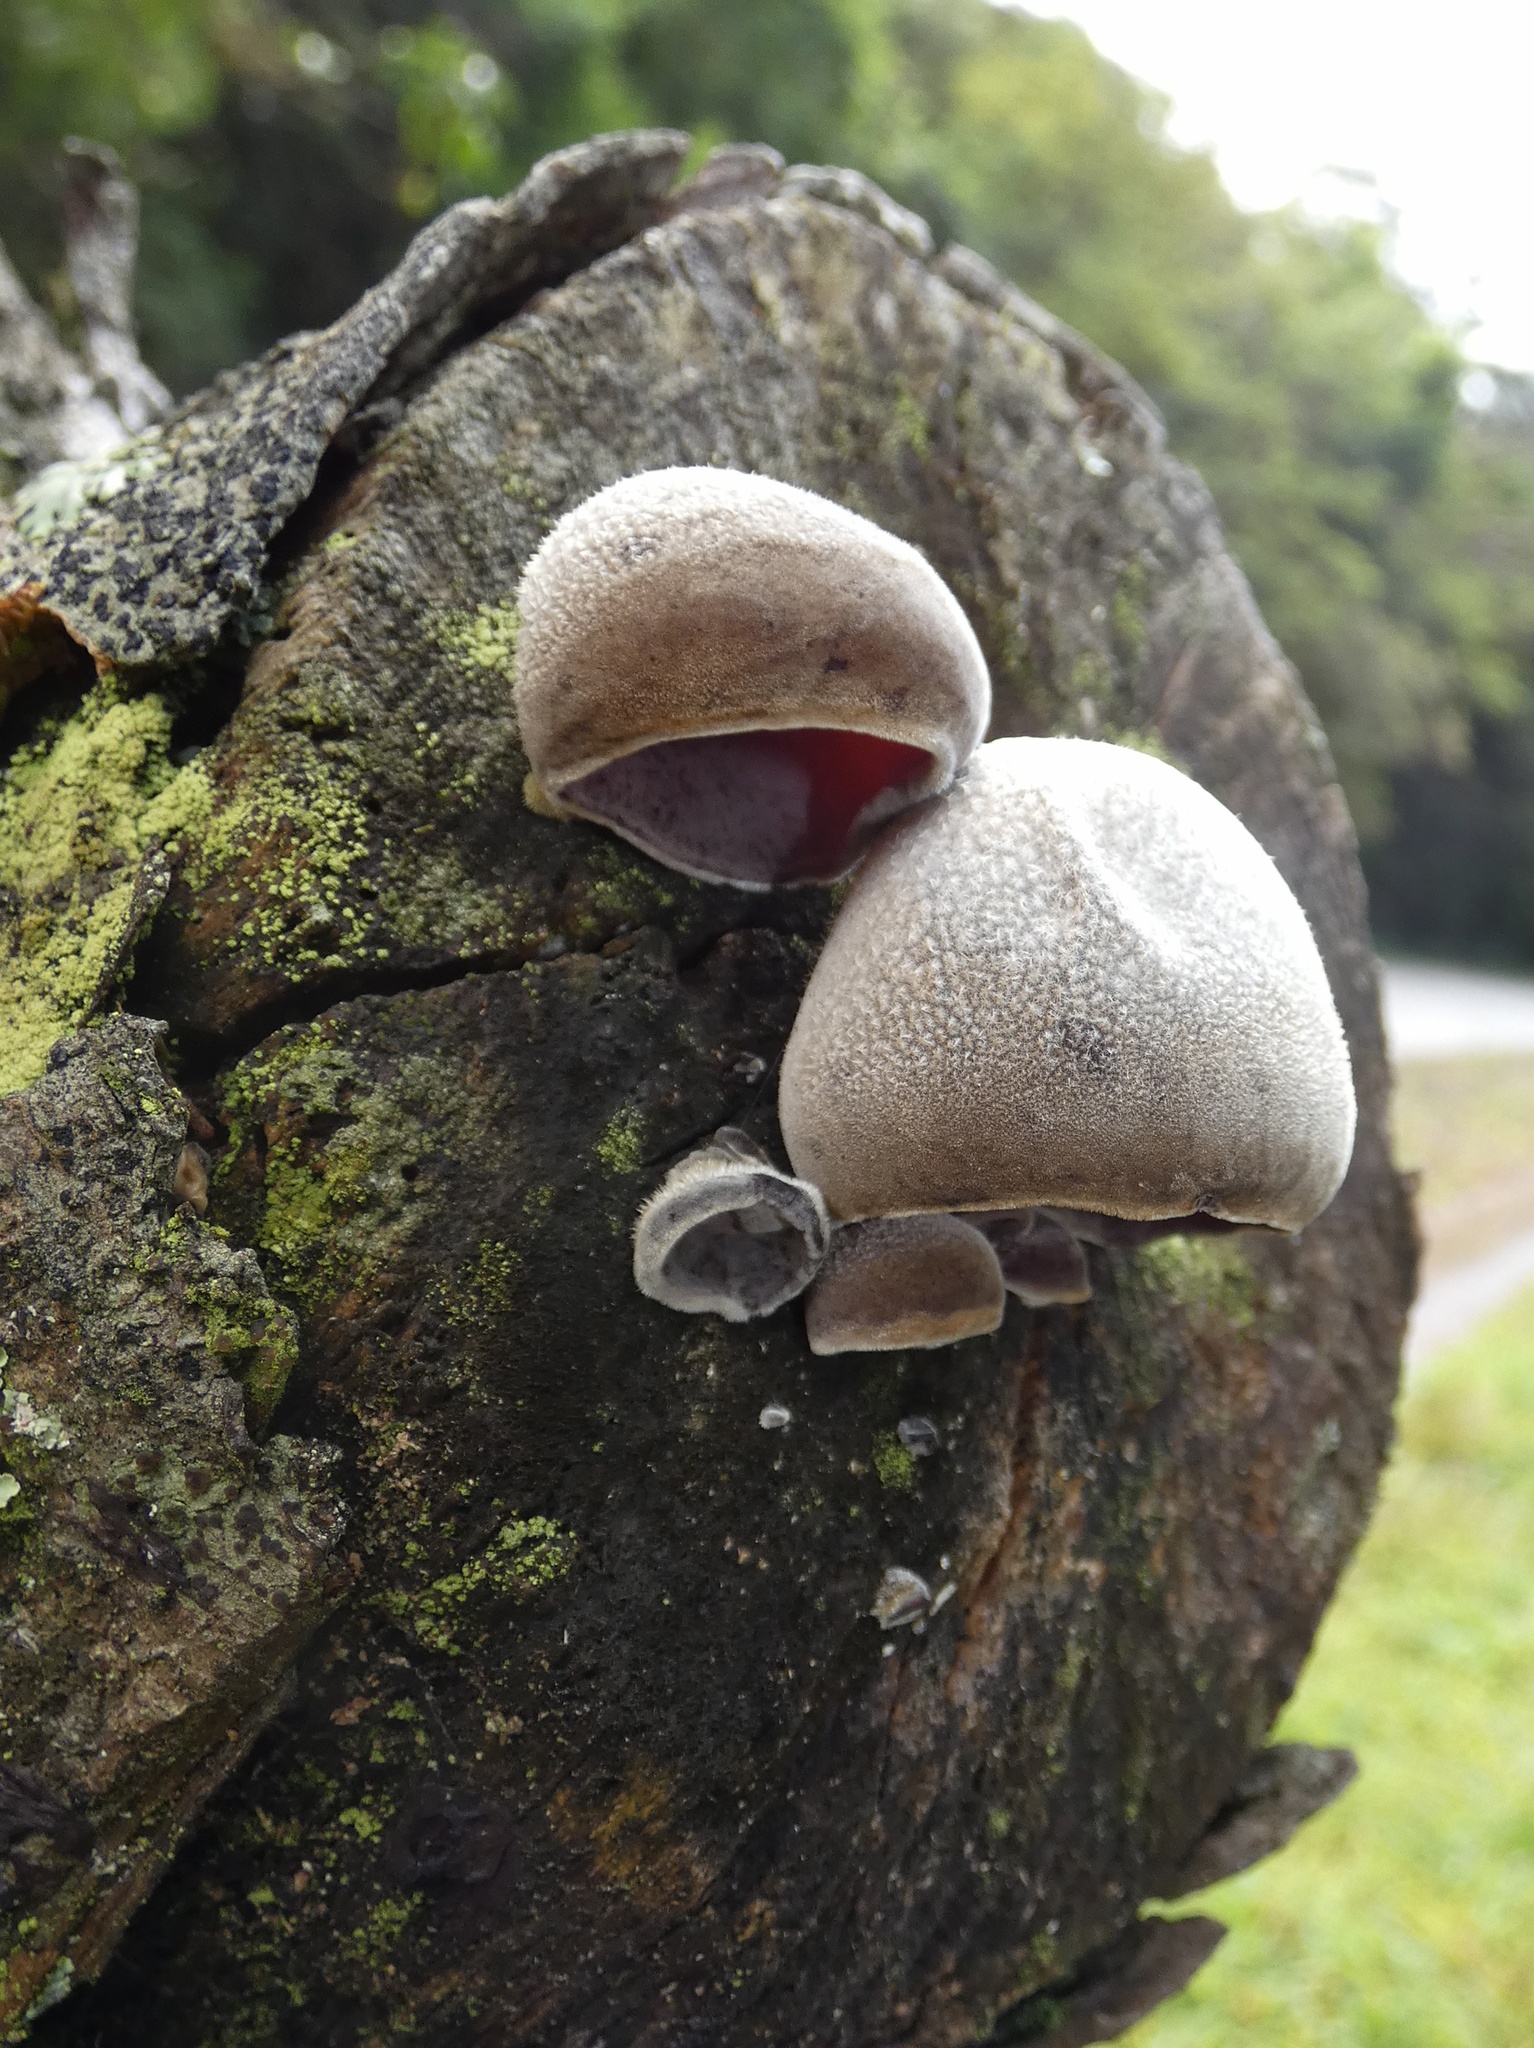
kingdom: Fungi
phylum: Basidiomycota
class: Agaricomycetes
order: Auriculariales
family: Auriculariaceae
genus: Auricularia
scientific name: Auricularia nigricans
